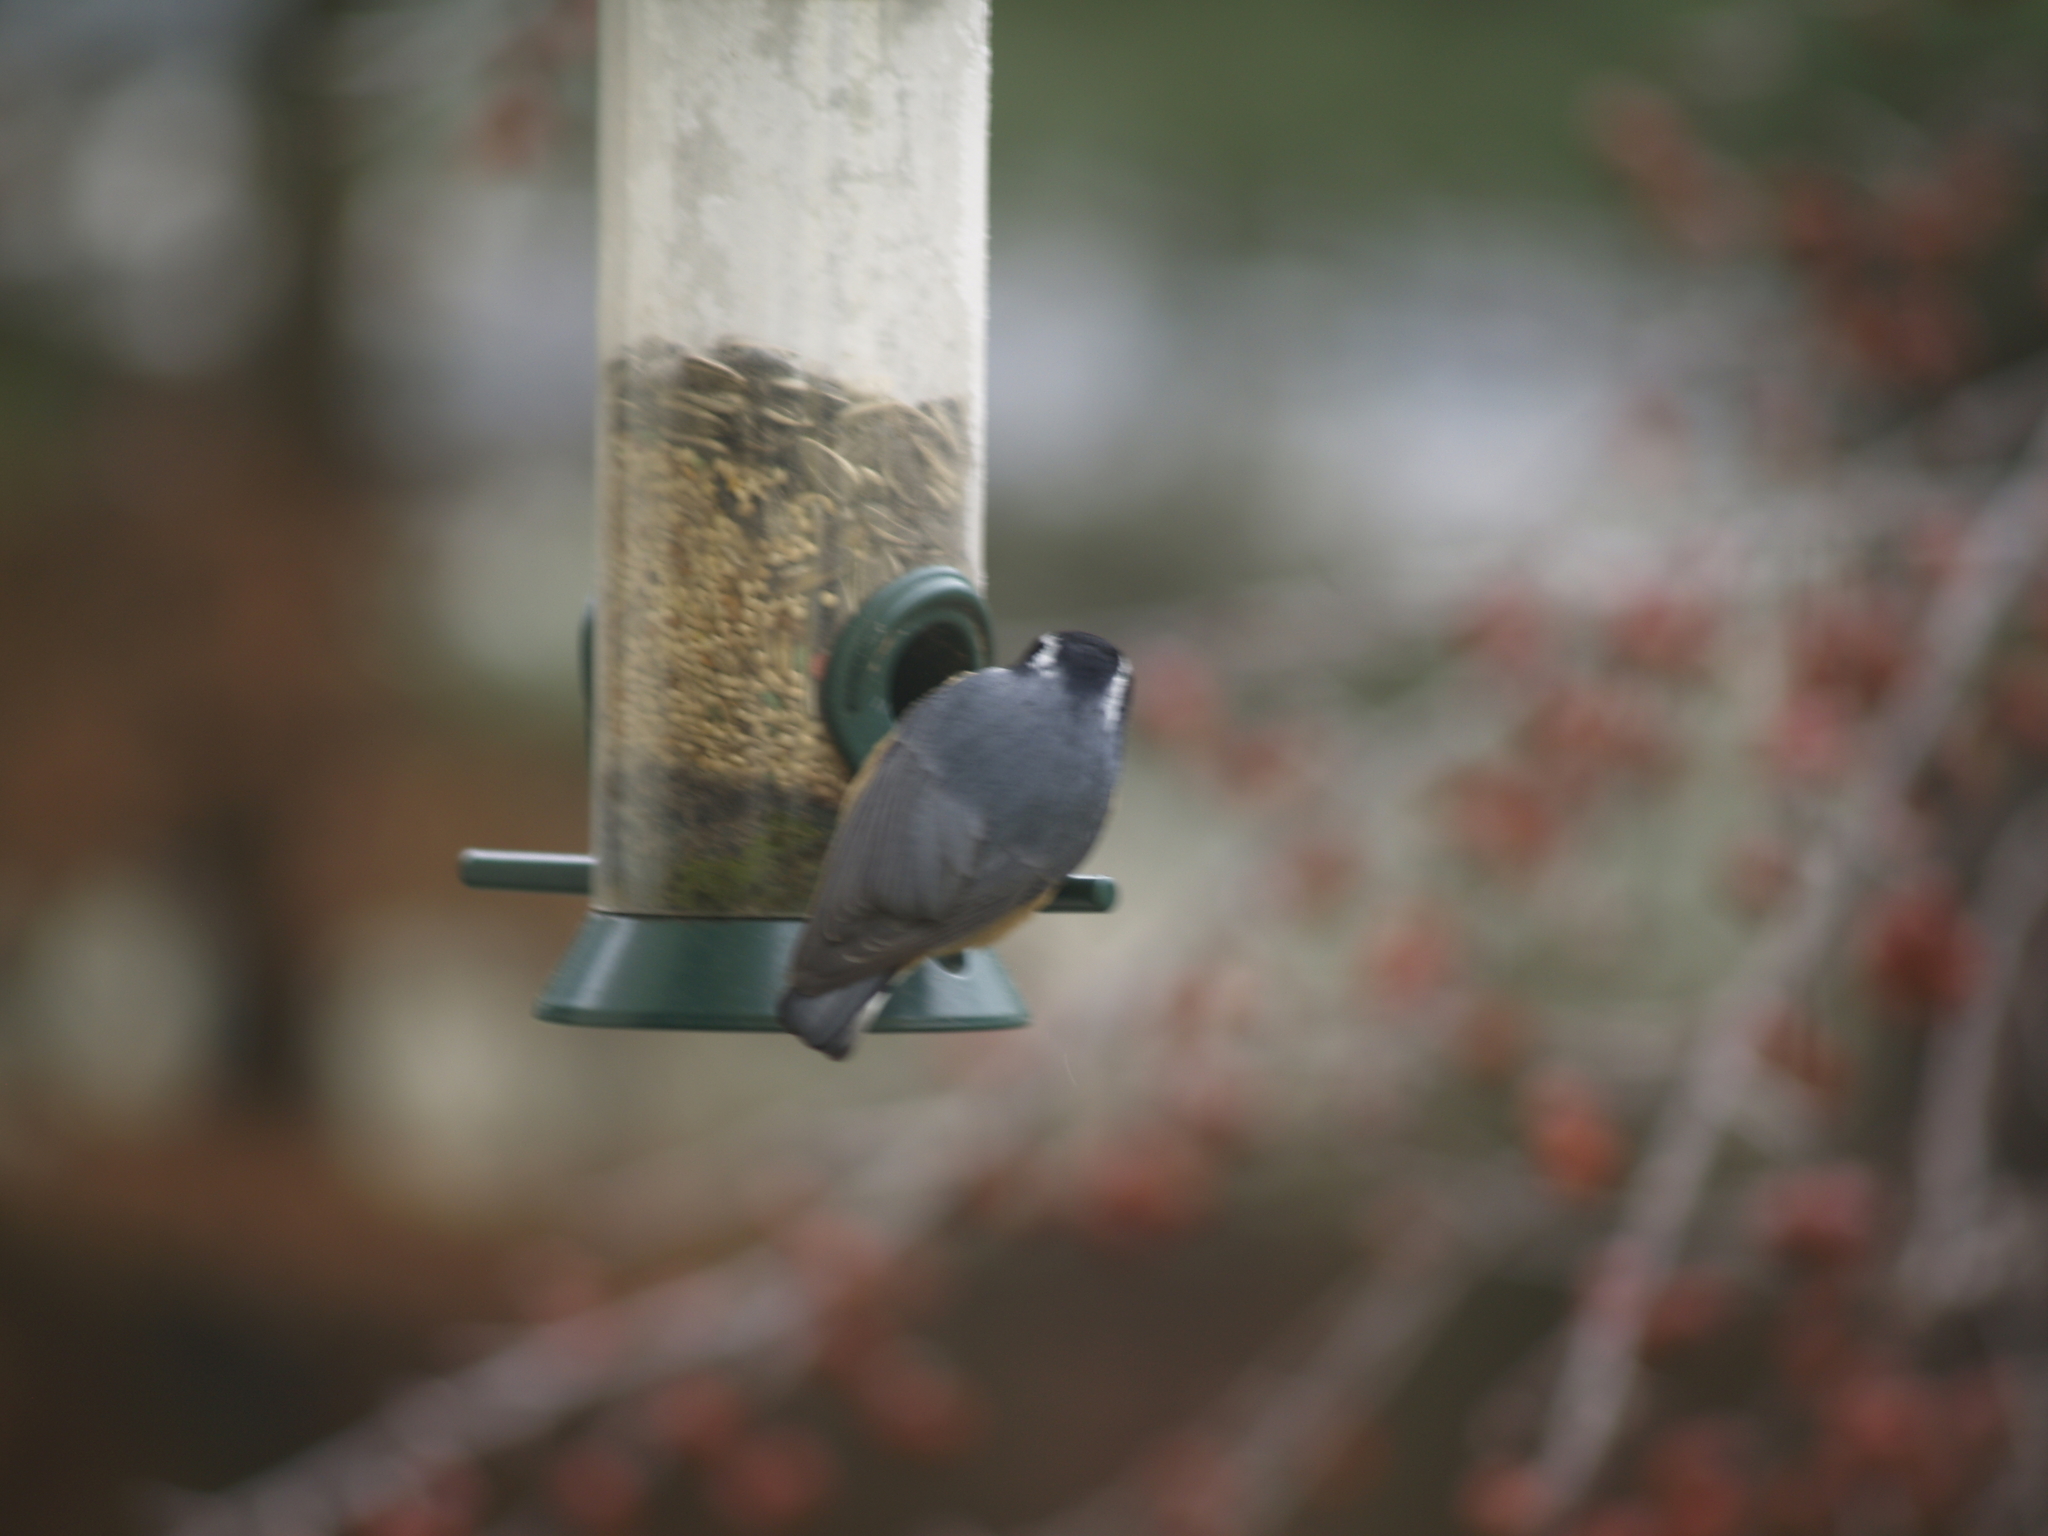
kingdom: Animalia
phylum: Chordata
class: Aves
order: Passeriformes
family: Sittidae
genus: Sitta
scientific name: Sitta canadensis
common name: Red-breasted nuthatch
